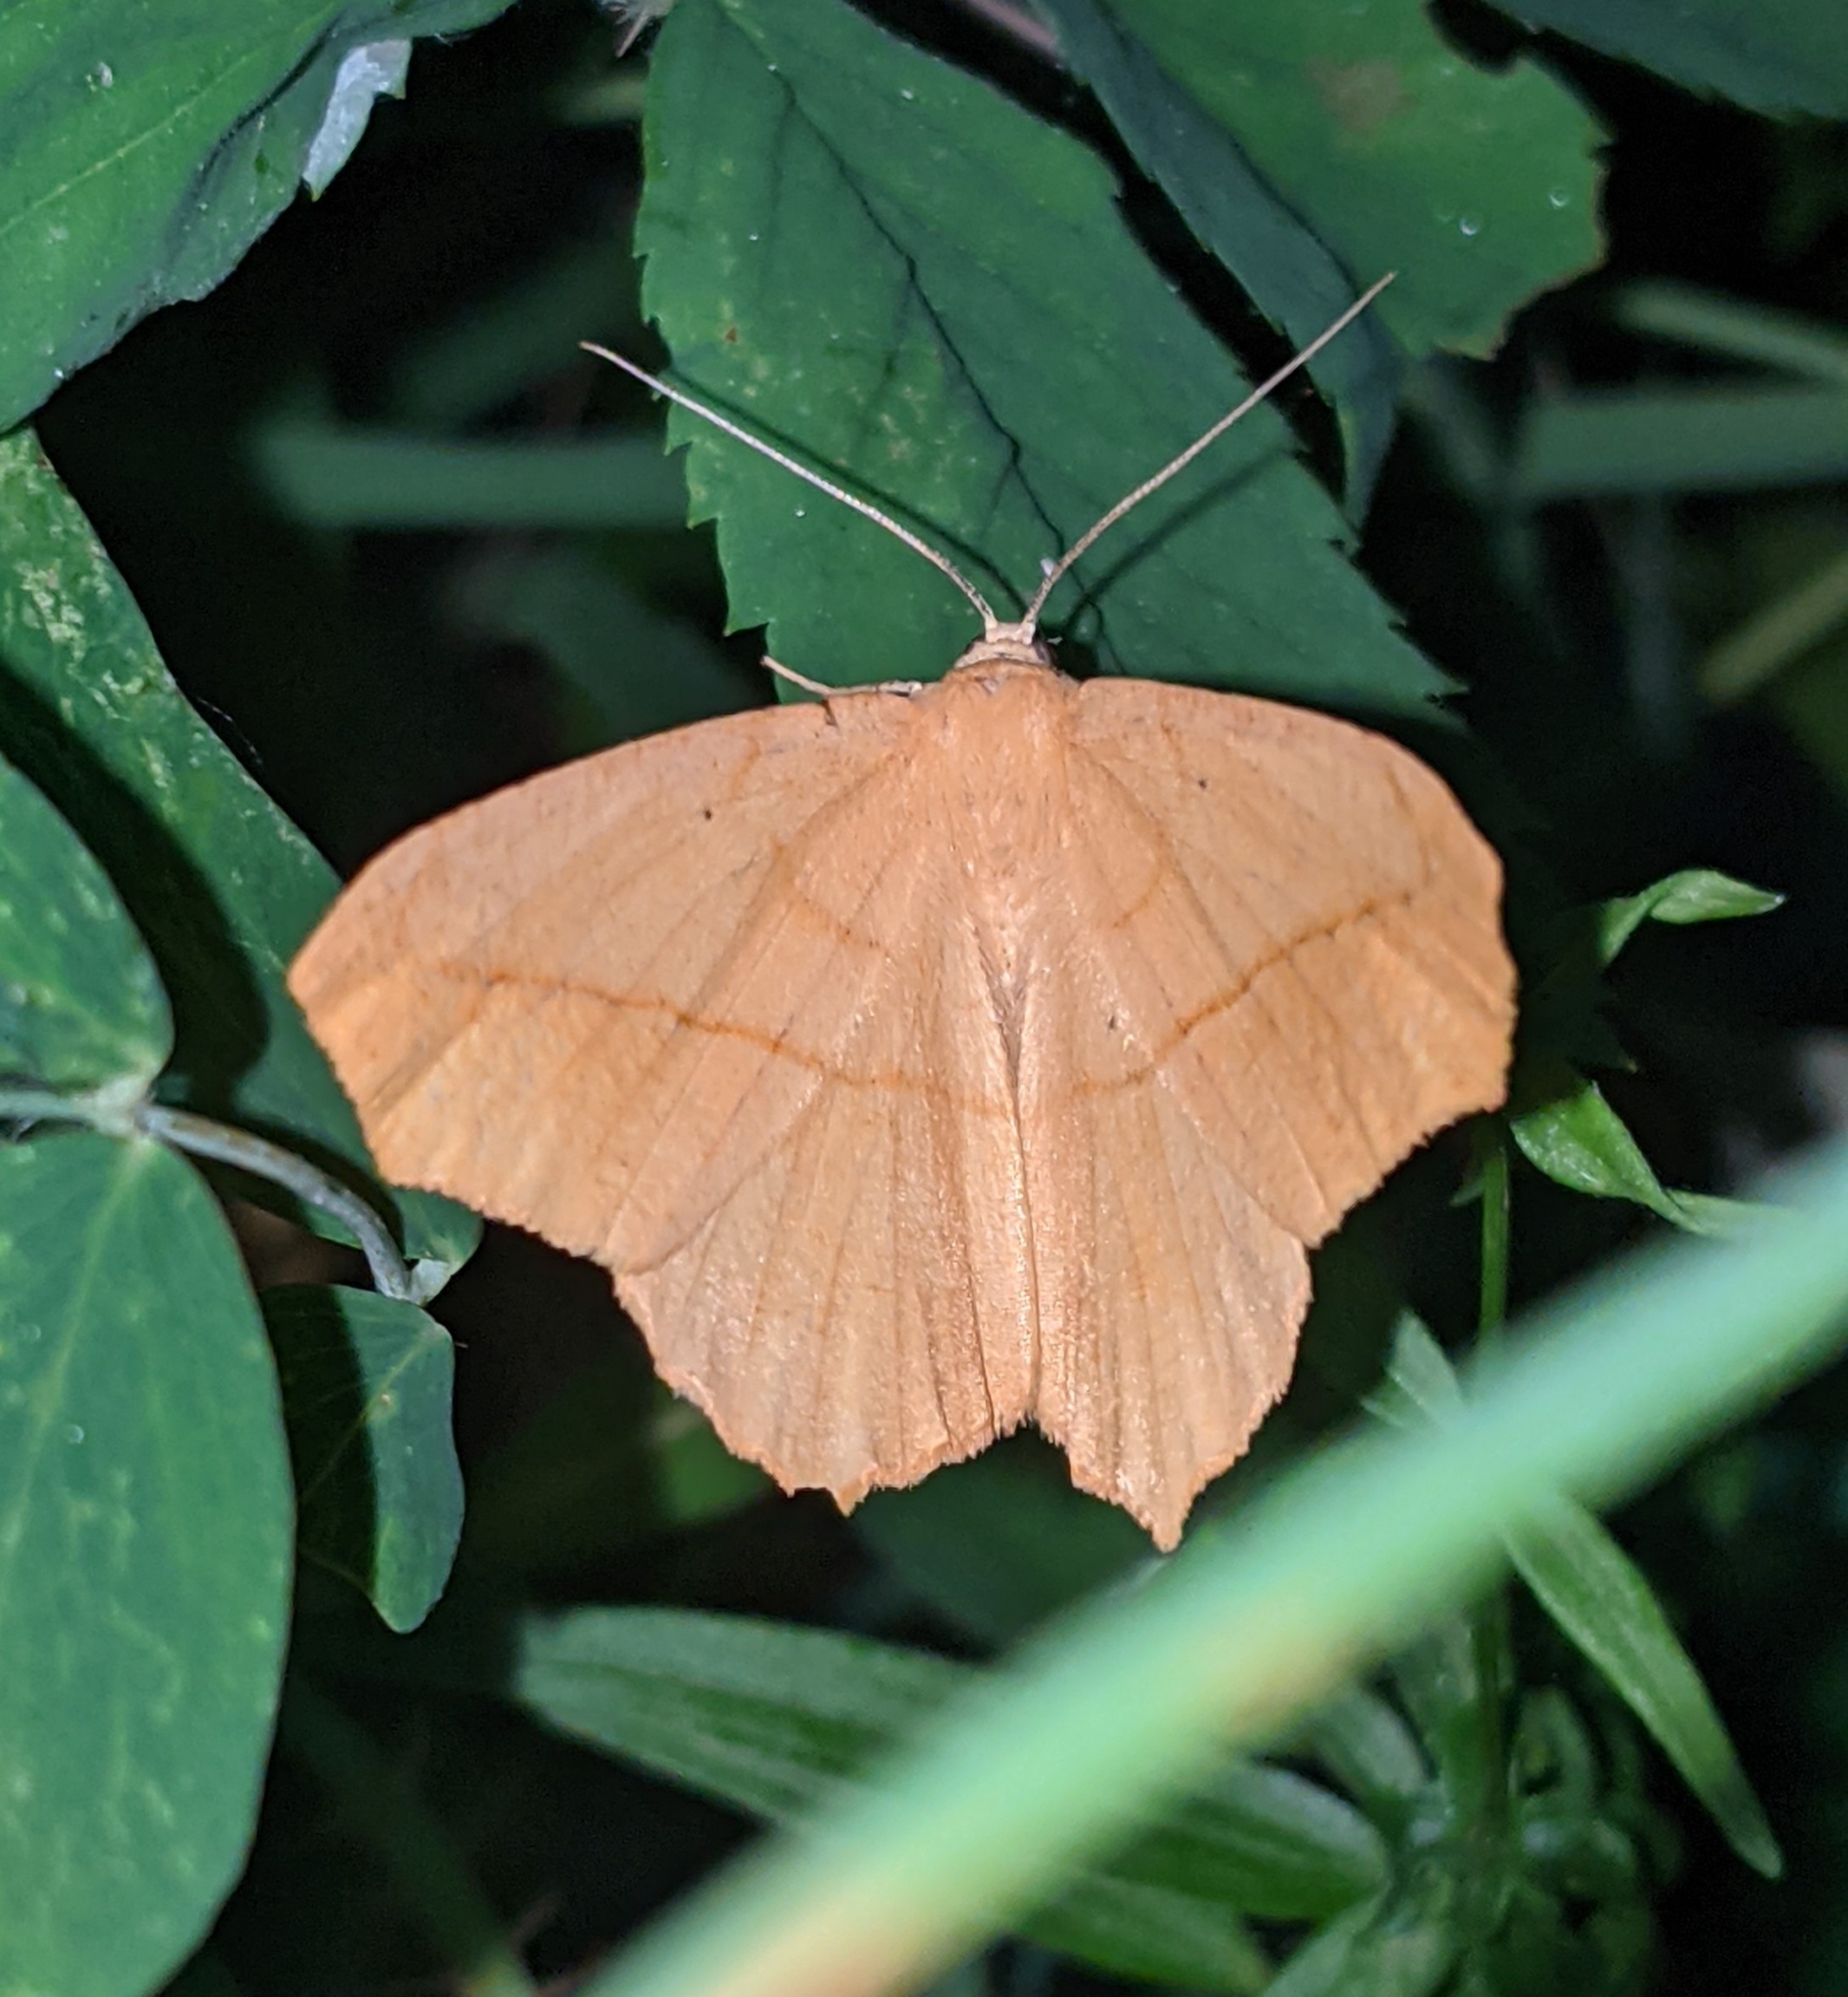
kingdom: Animalia
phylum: Arthropoda
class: Insecta
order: Lepidoptera
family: Geometridae
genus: Prochoerodes
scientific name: Prochoerodes lineola
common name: Large maple spanworm
